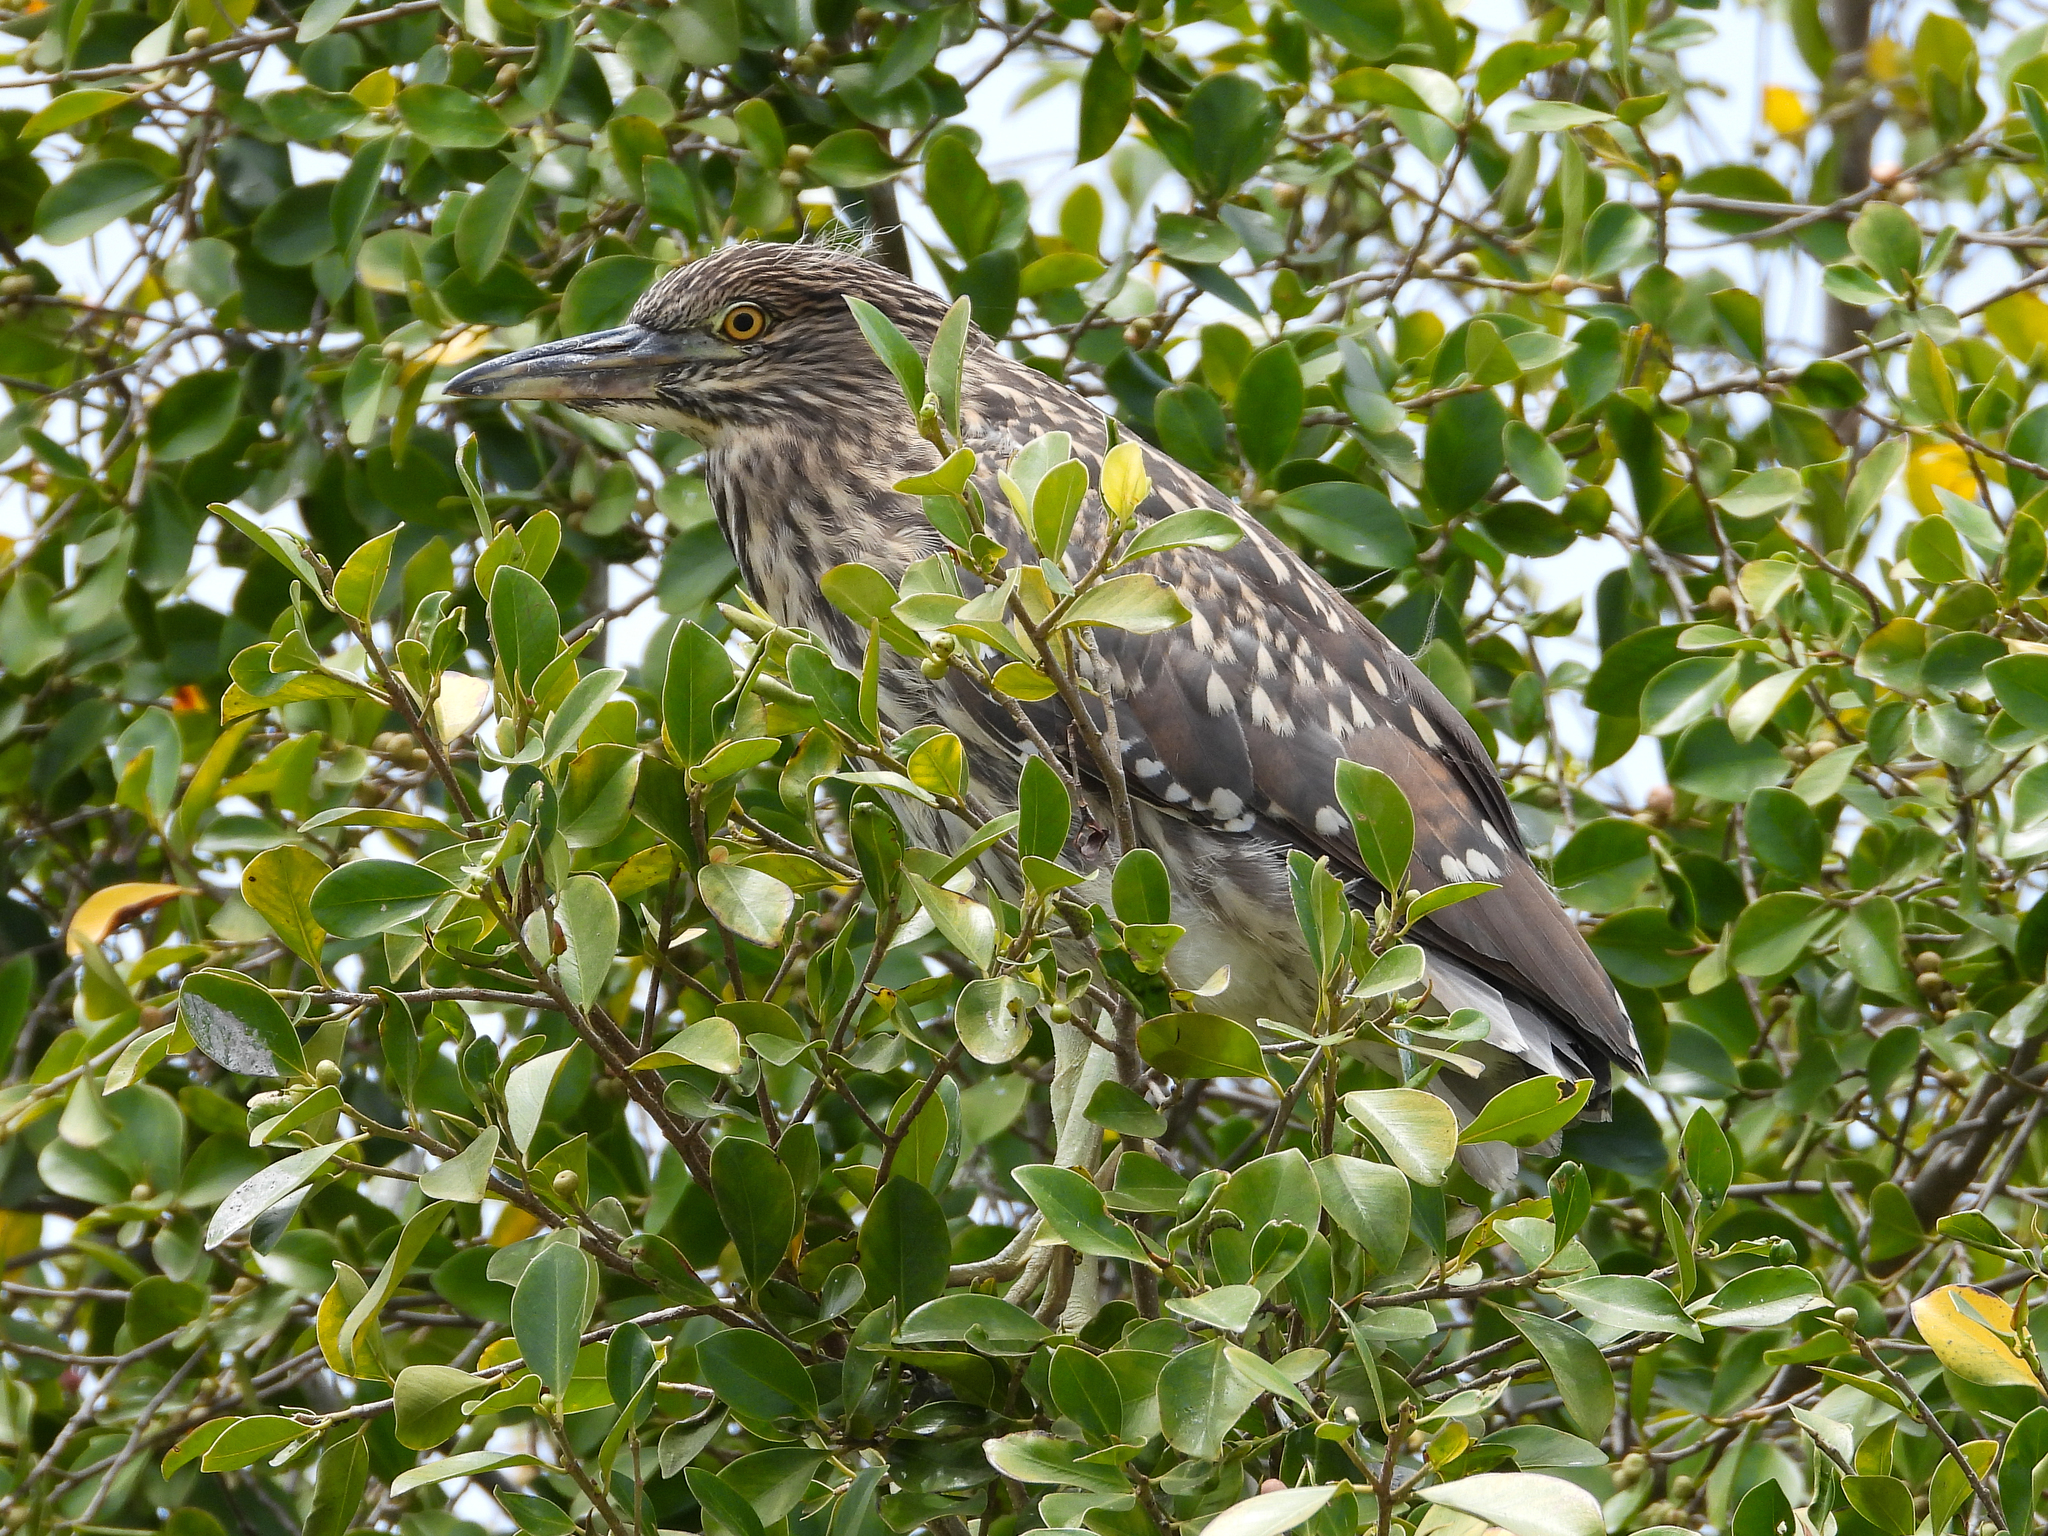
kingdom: Animalia
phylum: Chordata
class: Aves
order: Pelecaniformes
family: Ardeidae
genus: Nycticorax
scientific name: Nycticorax nycticorax
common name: Black-crowned night heron
